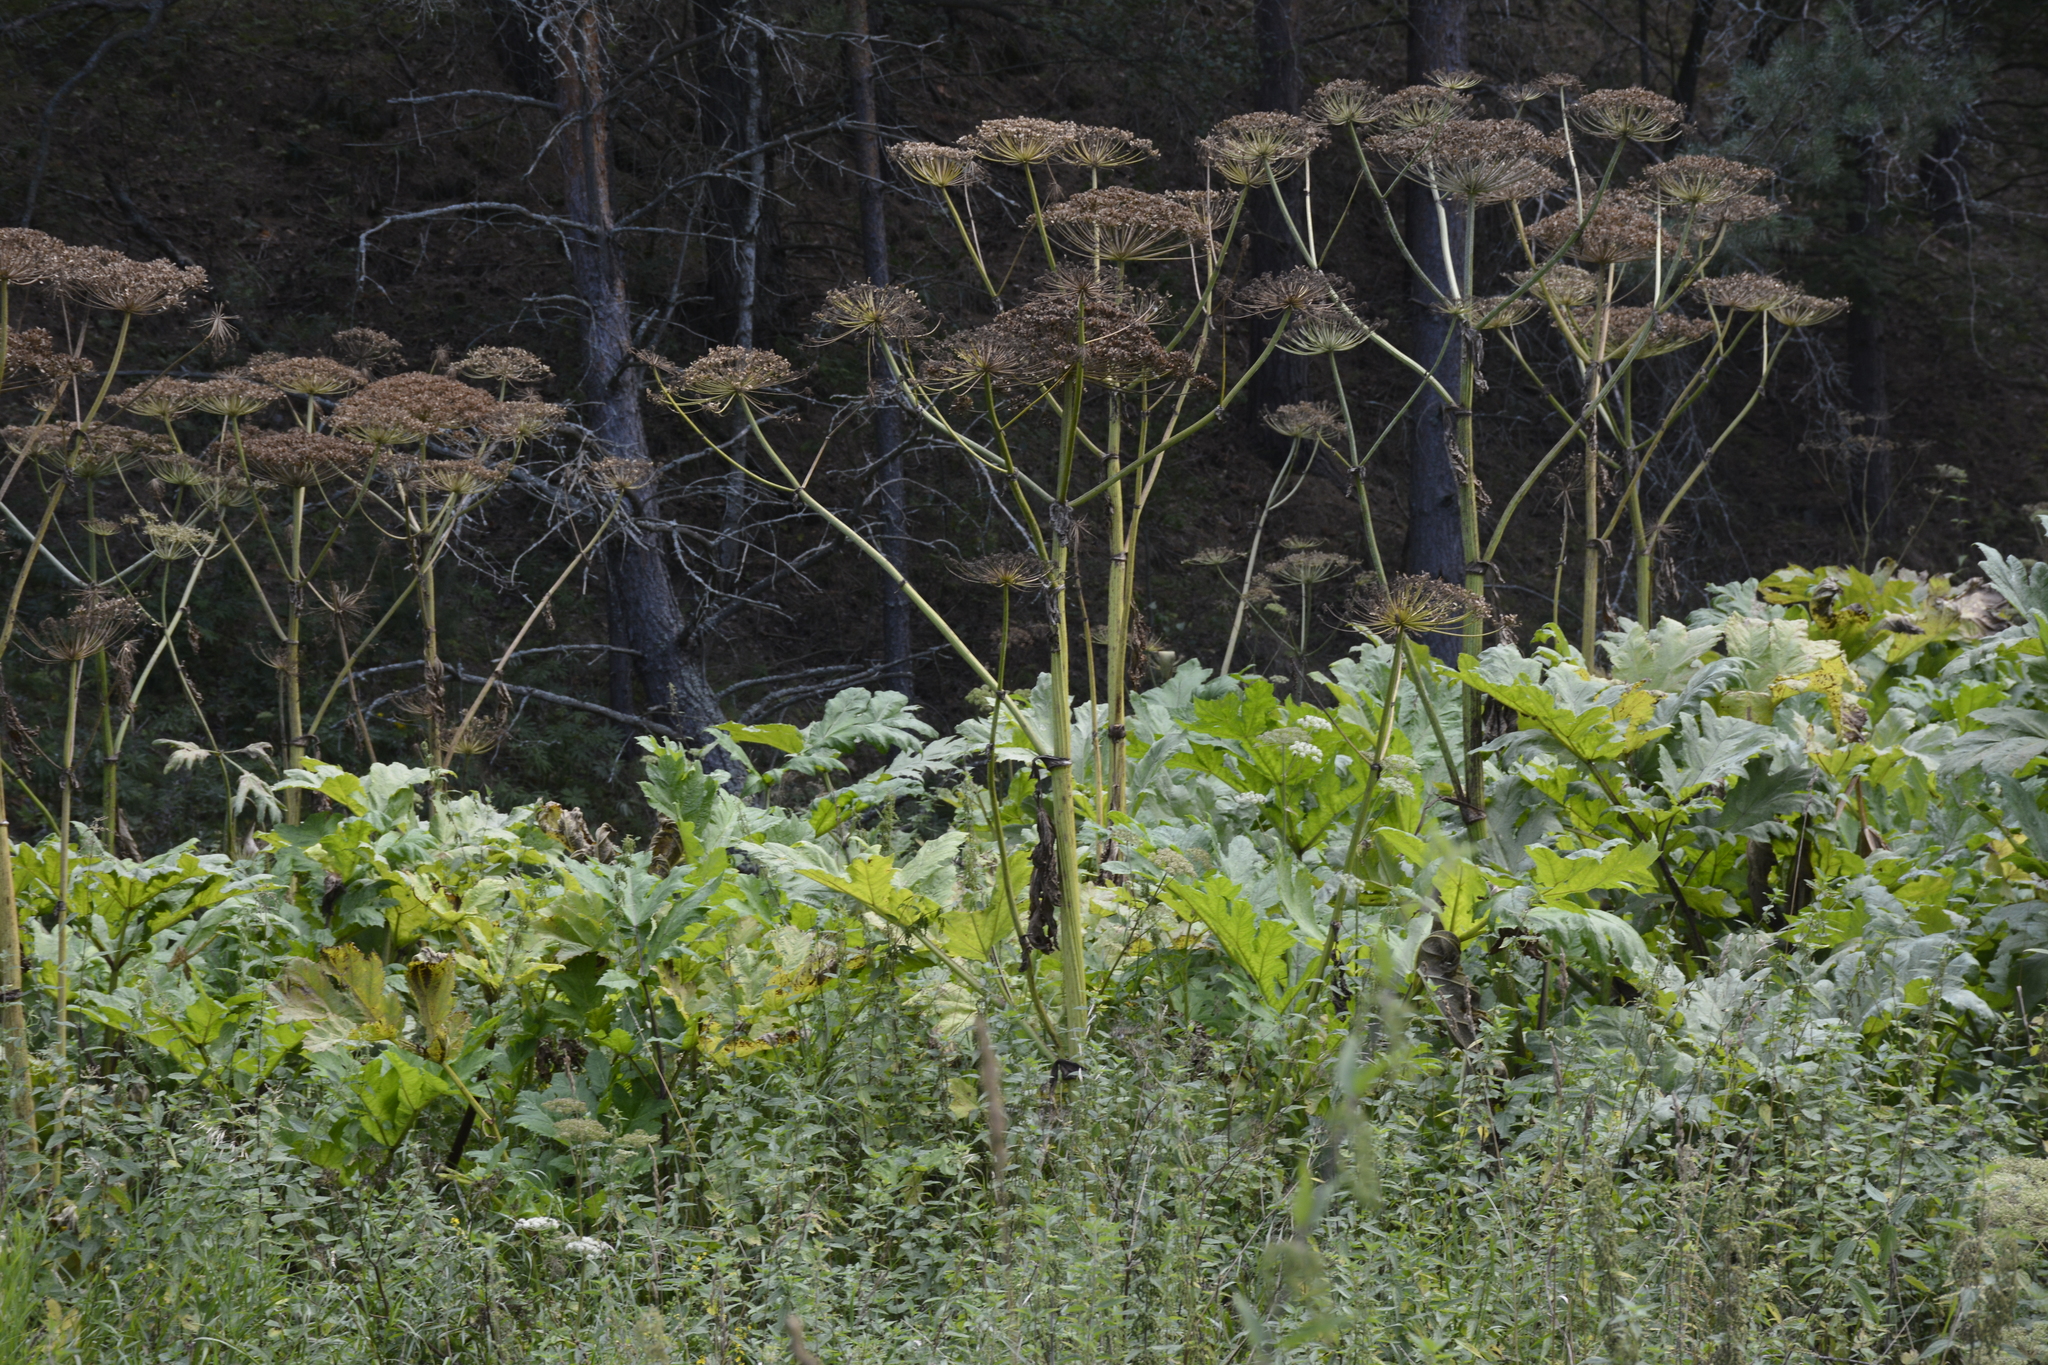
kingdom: Plantae
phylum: Tracheophyta
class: Magnoliopsida
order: Apiales
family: Apiaceae
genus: Heracleum
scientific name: Heracleum sosnowskyi
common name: Sosnowsky's hogweed
